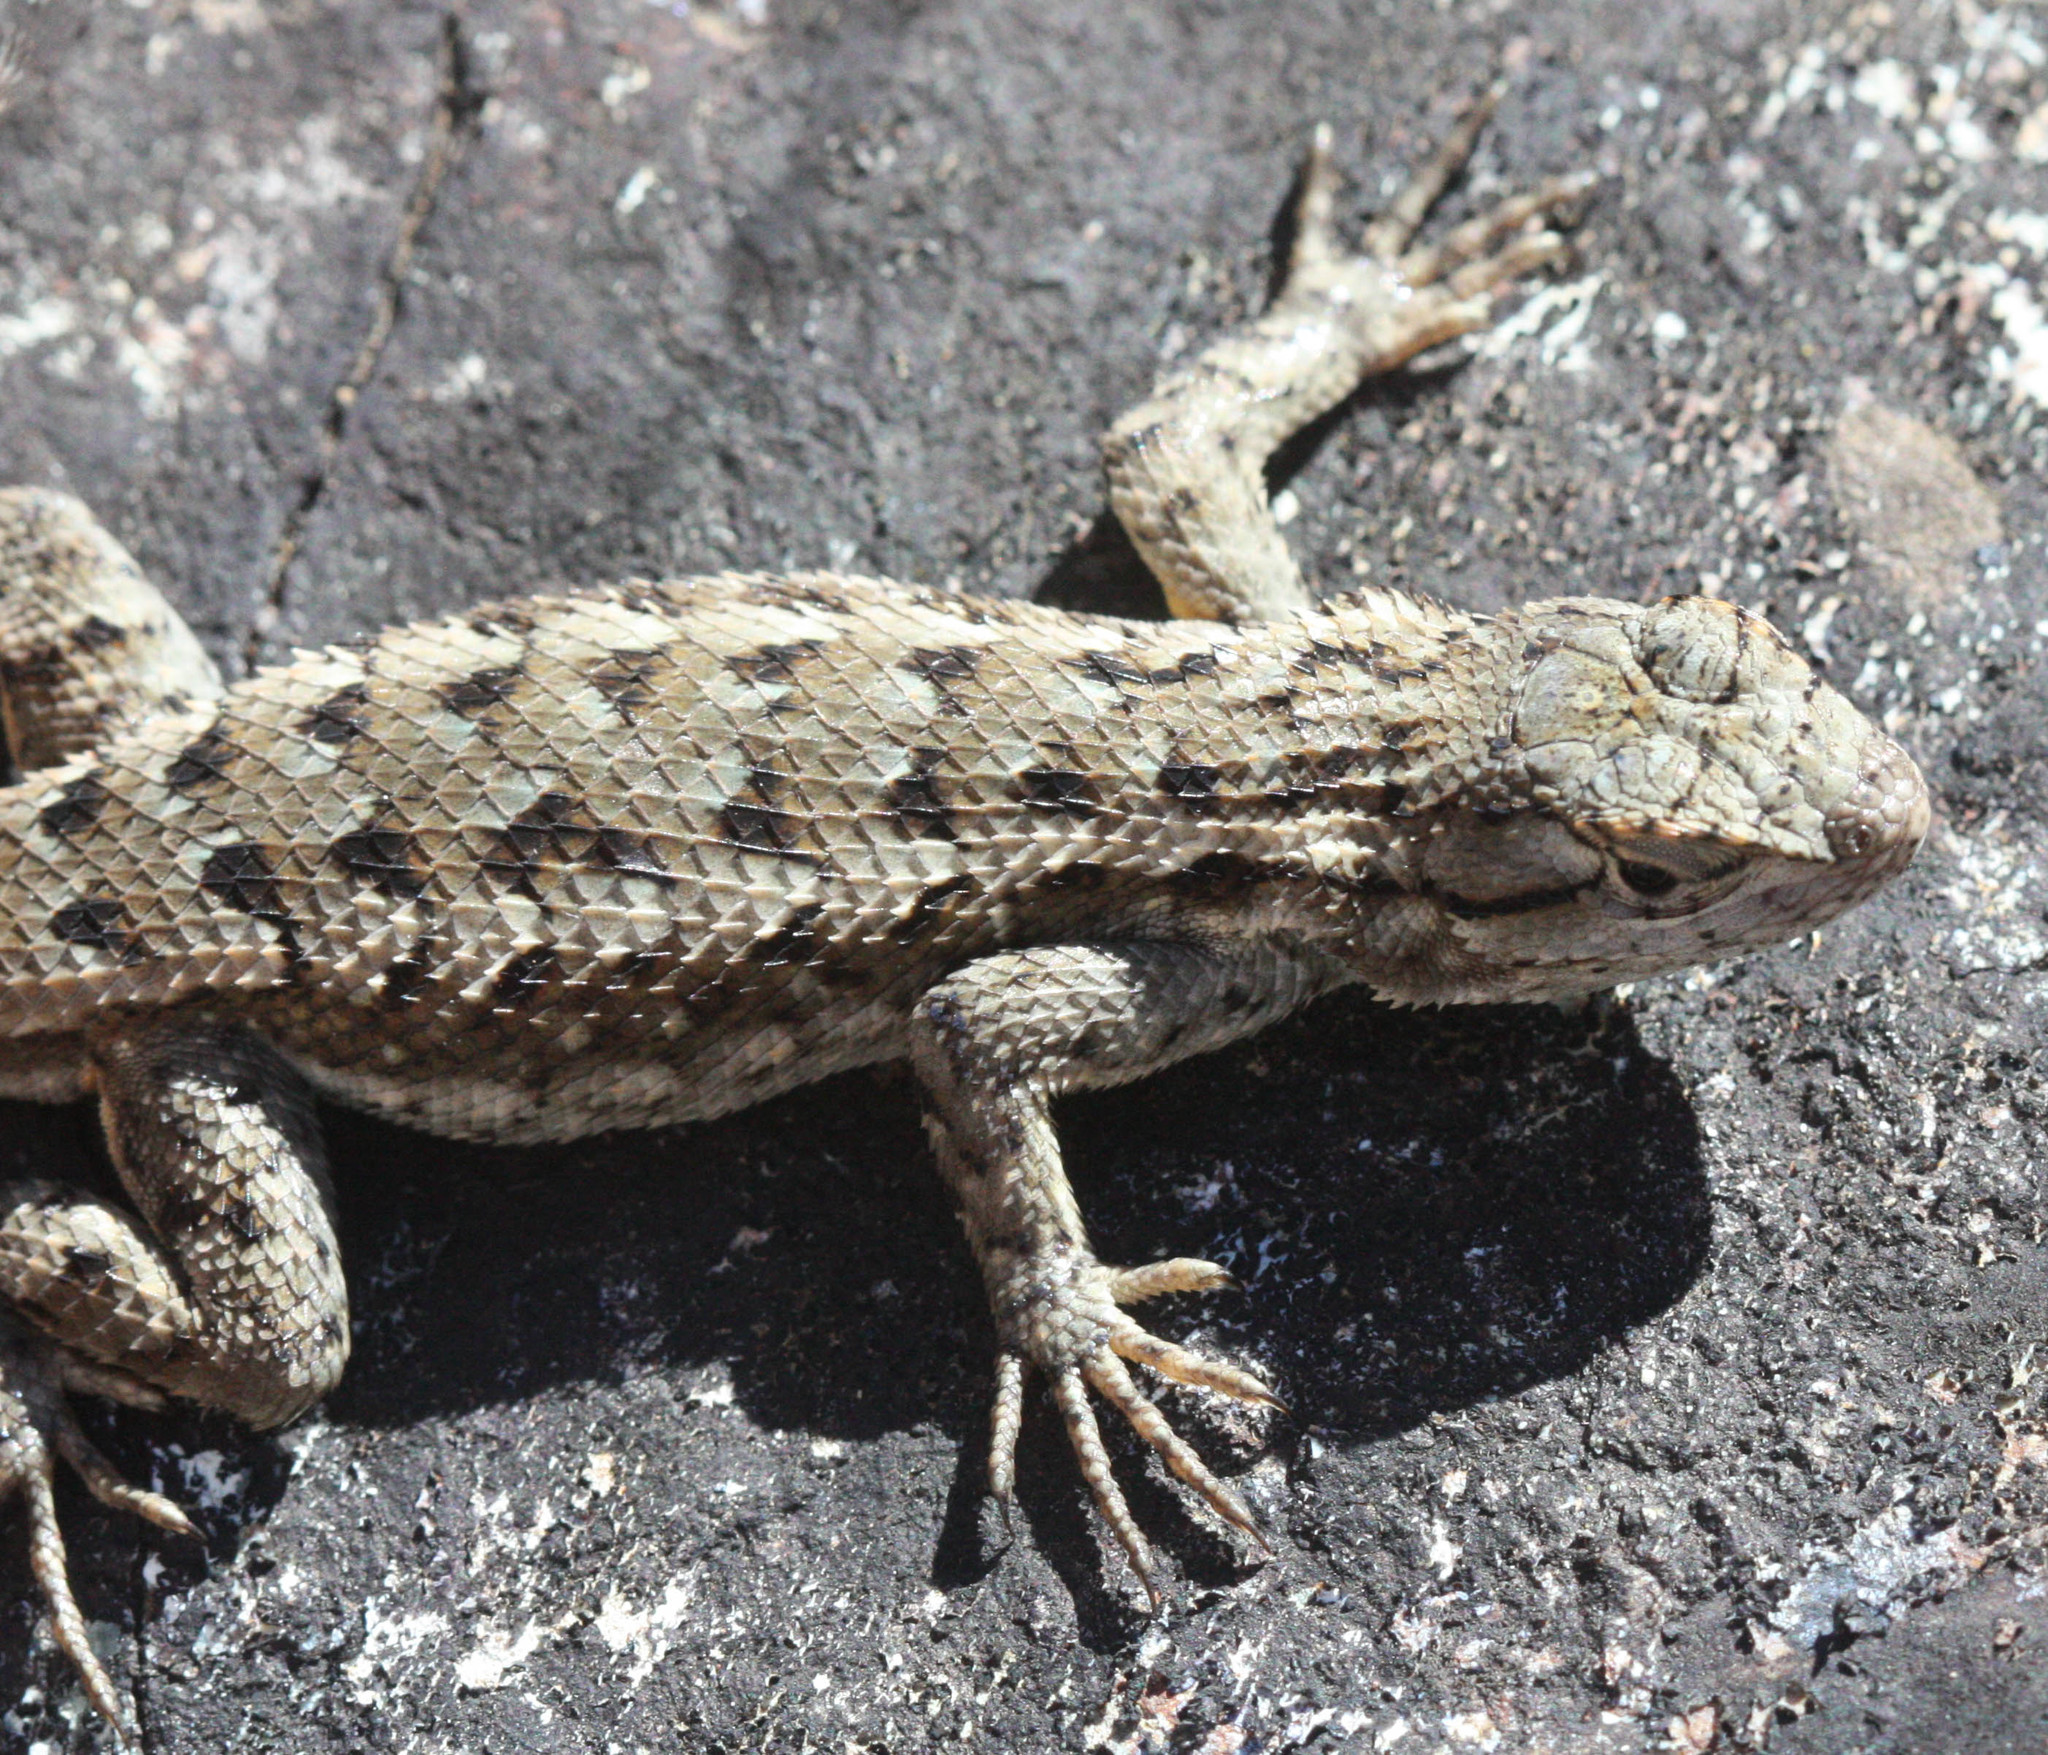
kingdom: Animalia
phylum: Chordata
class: Squamata
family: Phrynosomatidae
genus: Sceloporus
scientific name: Sceloporus occidentalis
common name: Western fence lizard
